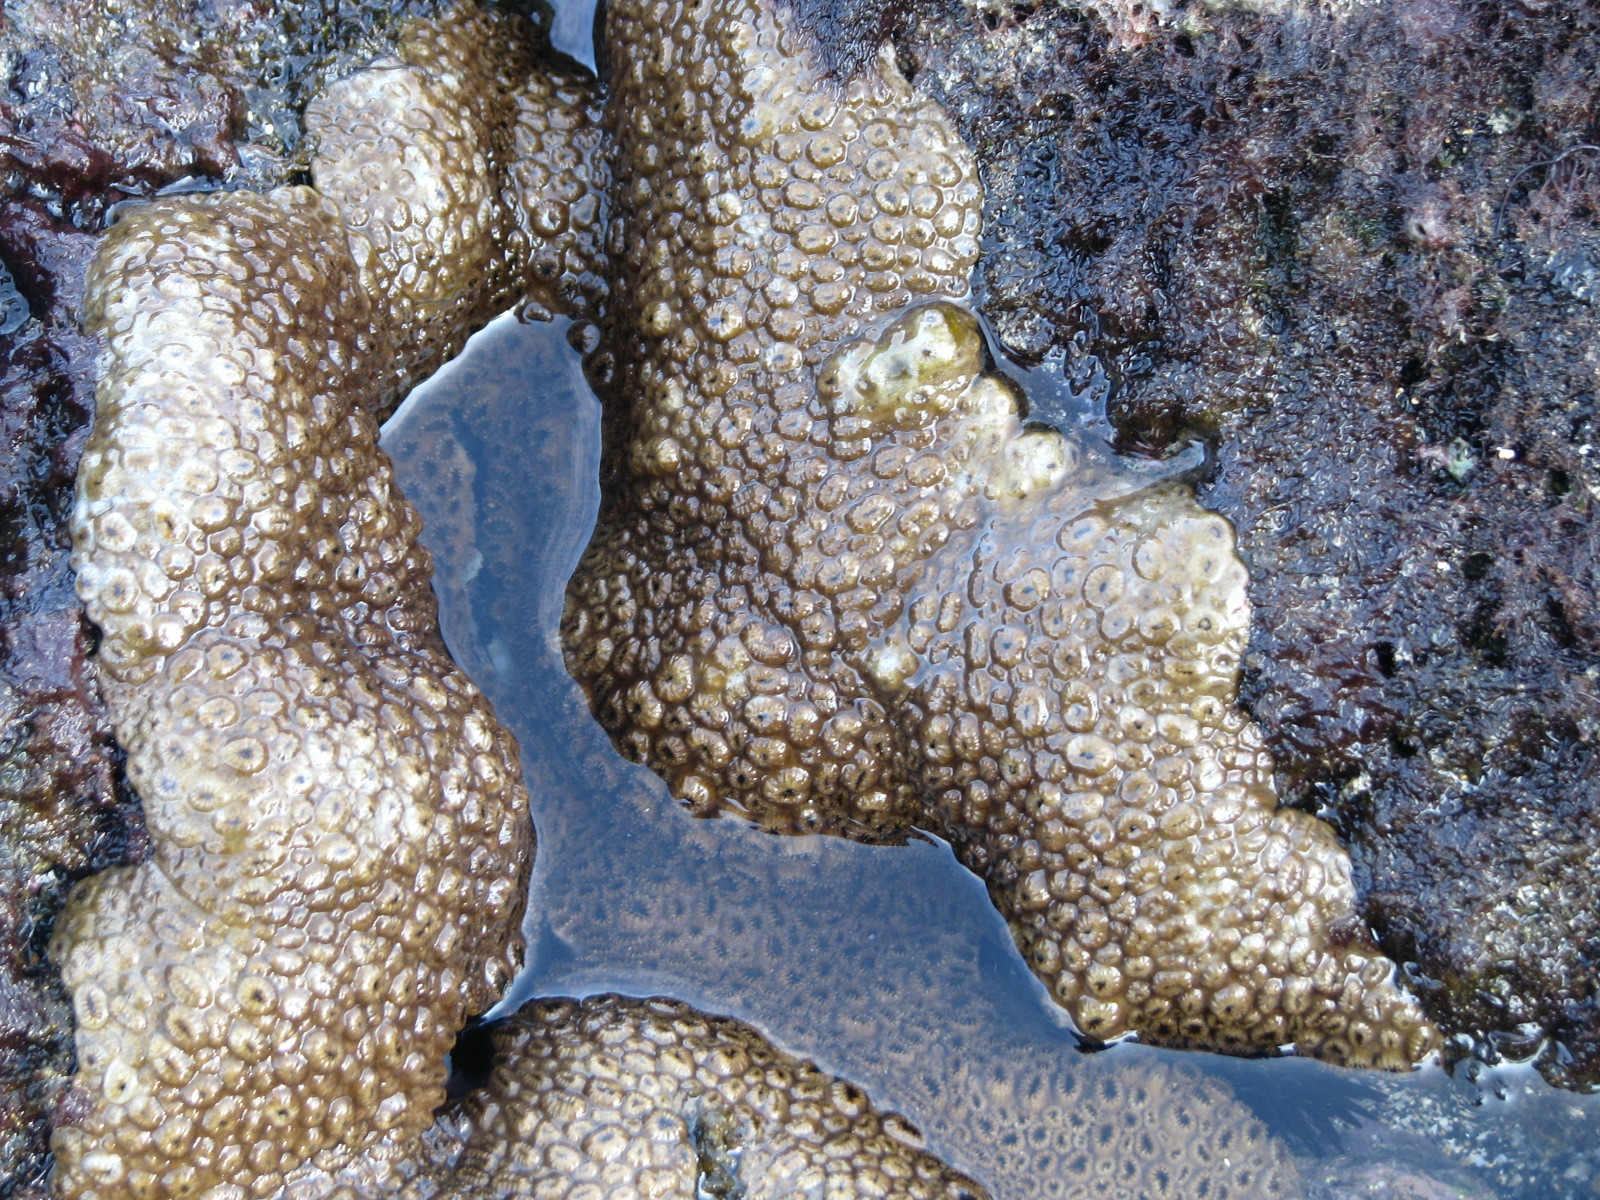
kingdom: Animalia
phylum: Cnidaria
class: Anthozoa
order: Zoantharia
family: Sphenopidae
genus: Palythoa
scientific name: Palythoa tuberculosa
